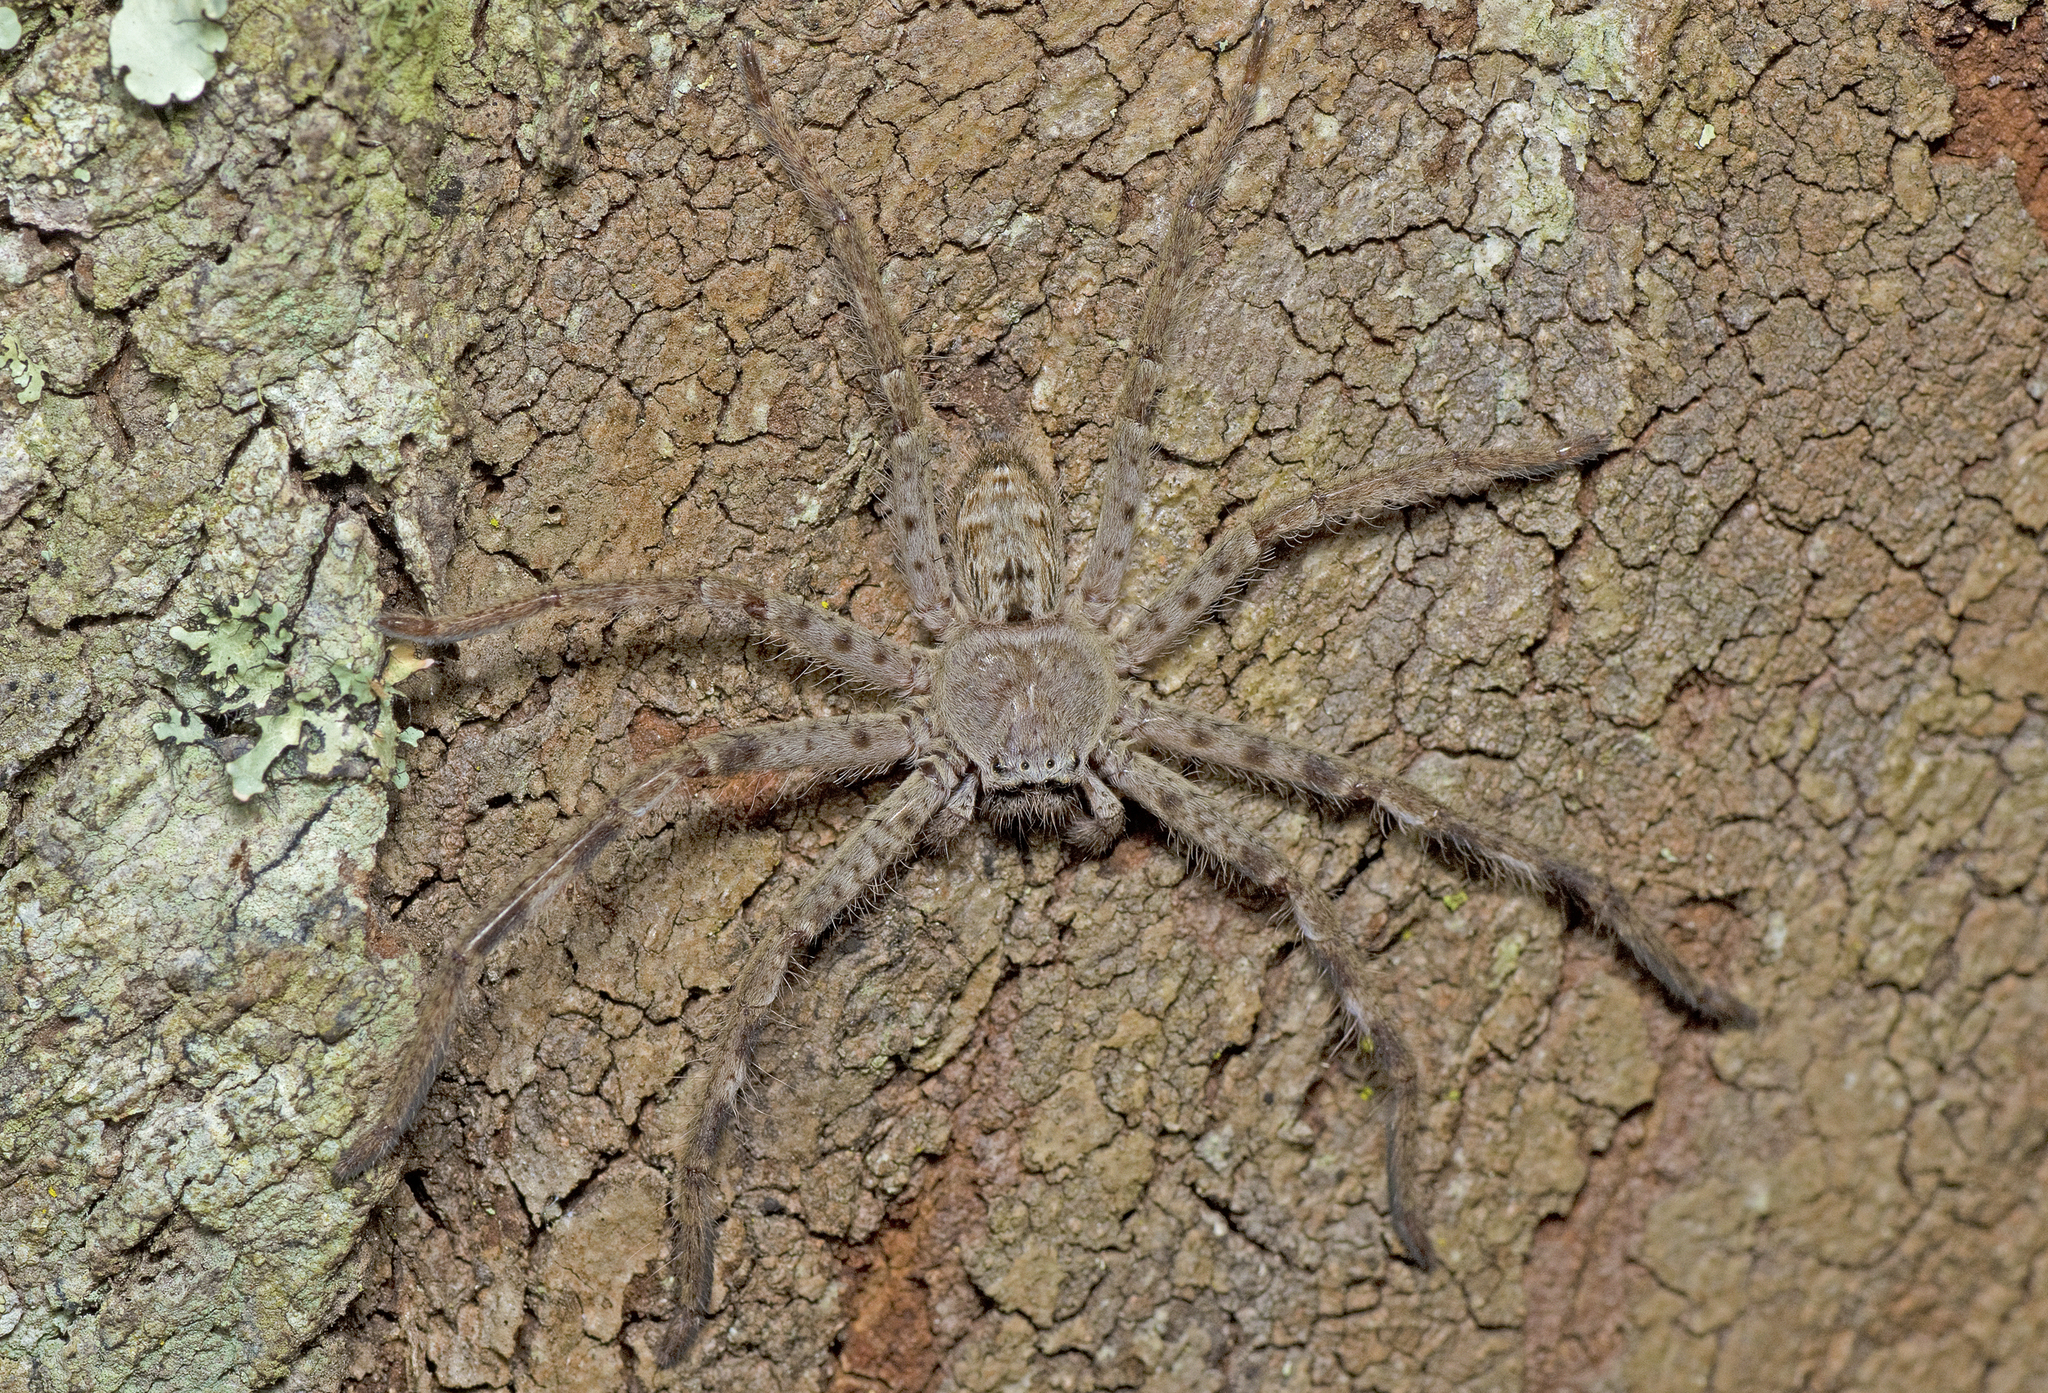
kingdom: Animalia
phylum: Arthropoda
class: Arachnida
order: Araneae
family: Sparassidae
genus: Holconia
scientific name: Holconia insignis
